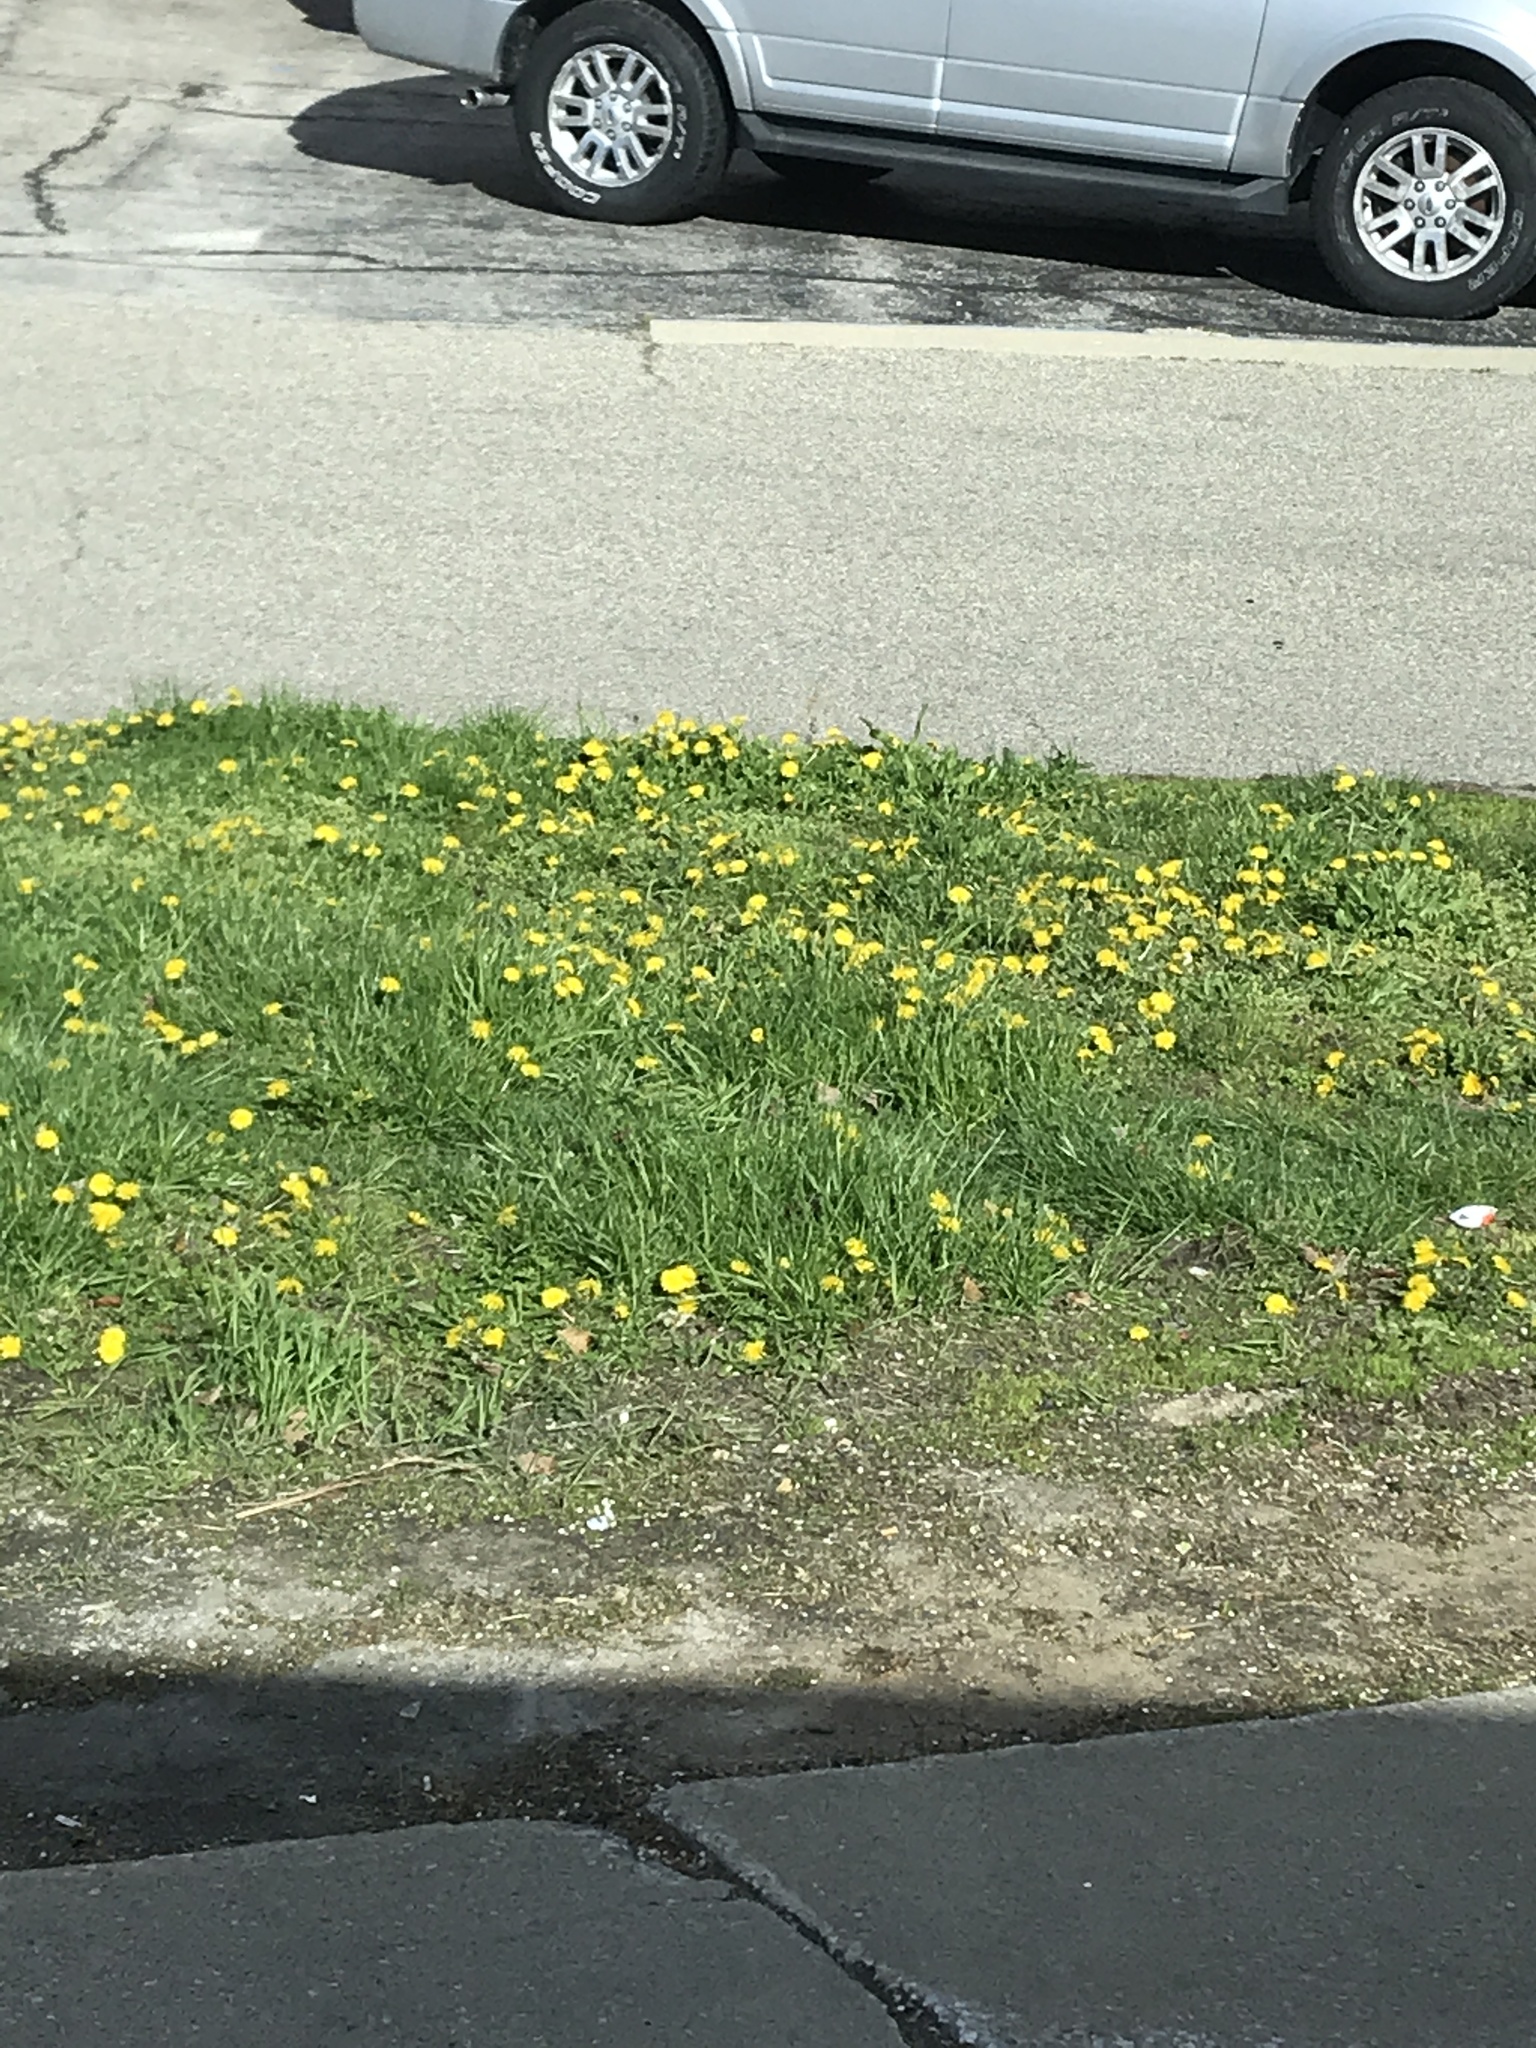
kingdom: Plantae
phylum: Tracheophyta
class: Magnoliopsida
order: Asterales
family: Asteraceae
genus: Taraxacum
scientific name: Taraxacum officinale
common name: Common dandelion
